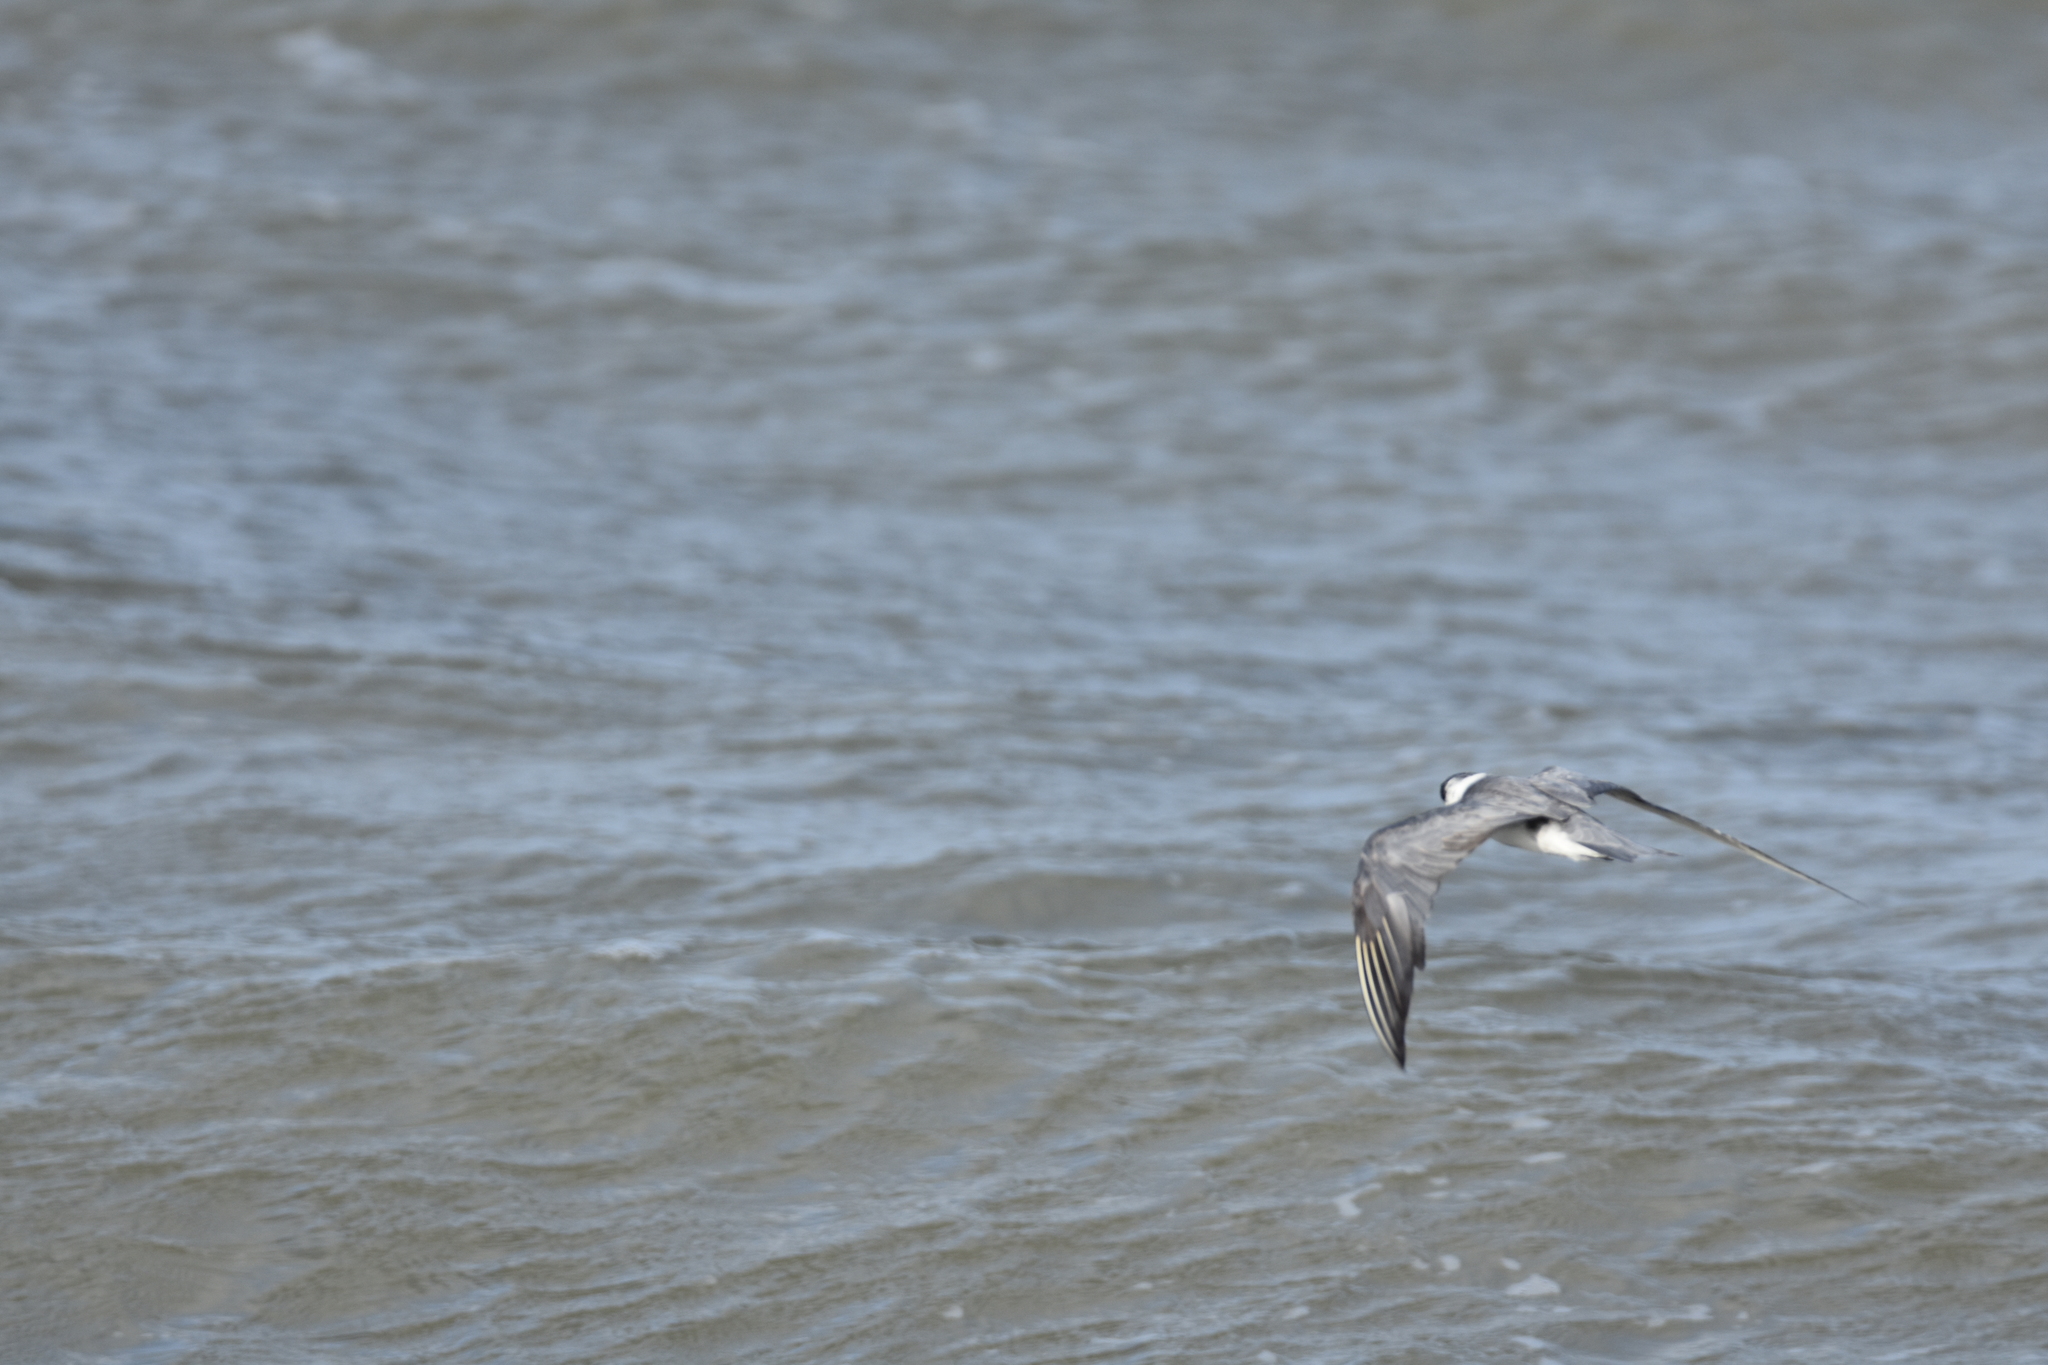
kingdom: Animalia
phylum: Chordata
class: Aves
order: Charadriiformes
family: Laridae
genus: Chlidonias
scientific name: Chlidonias niger
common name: Black tern
